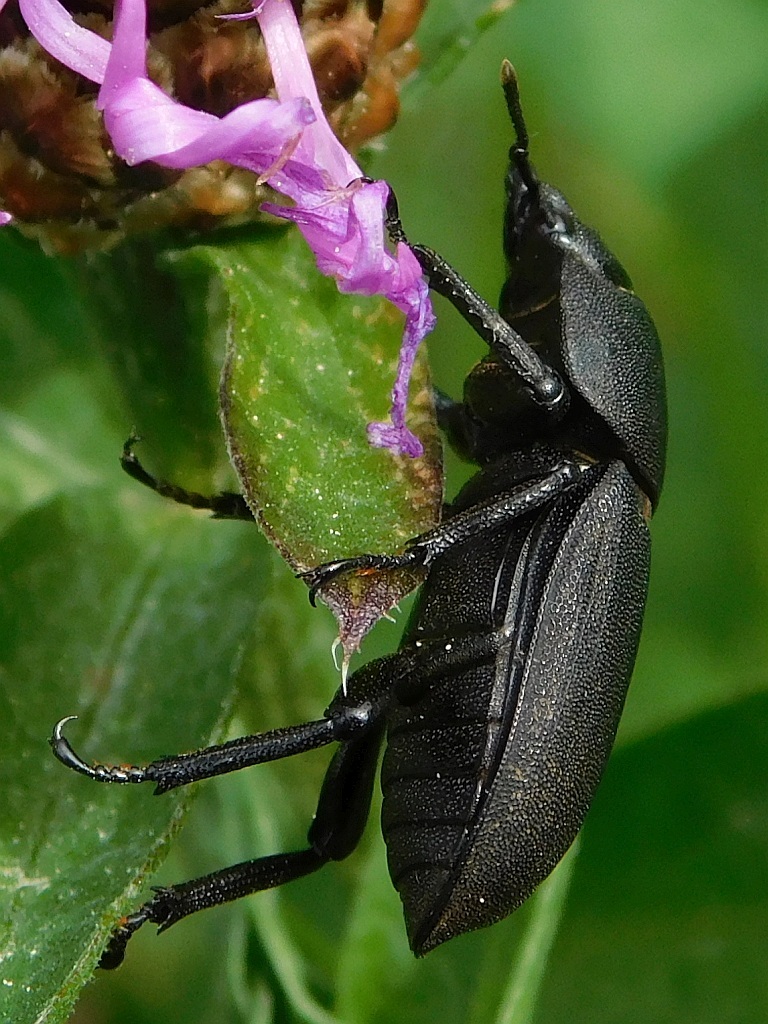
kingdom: Animalia
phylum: Arthropoda
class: Insecta
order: Coleoptera
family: Lucanidae
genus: Dorcus
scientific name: Dorcus parallelipipedus
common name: Lesser stag beetle
